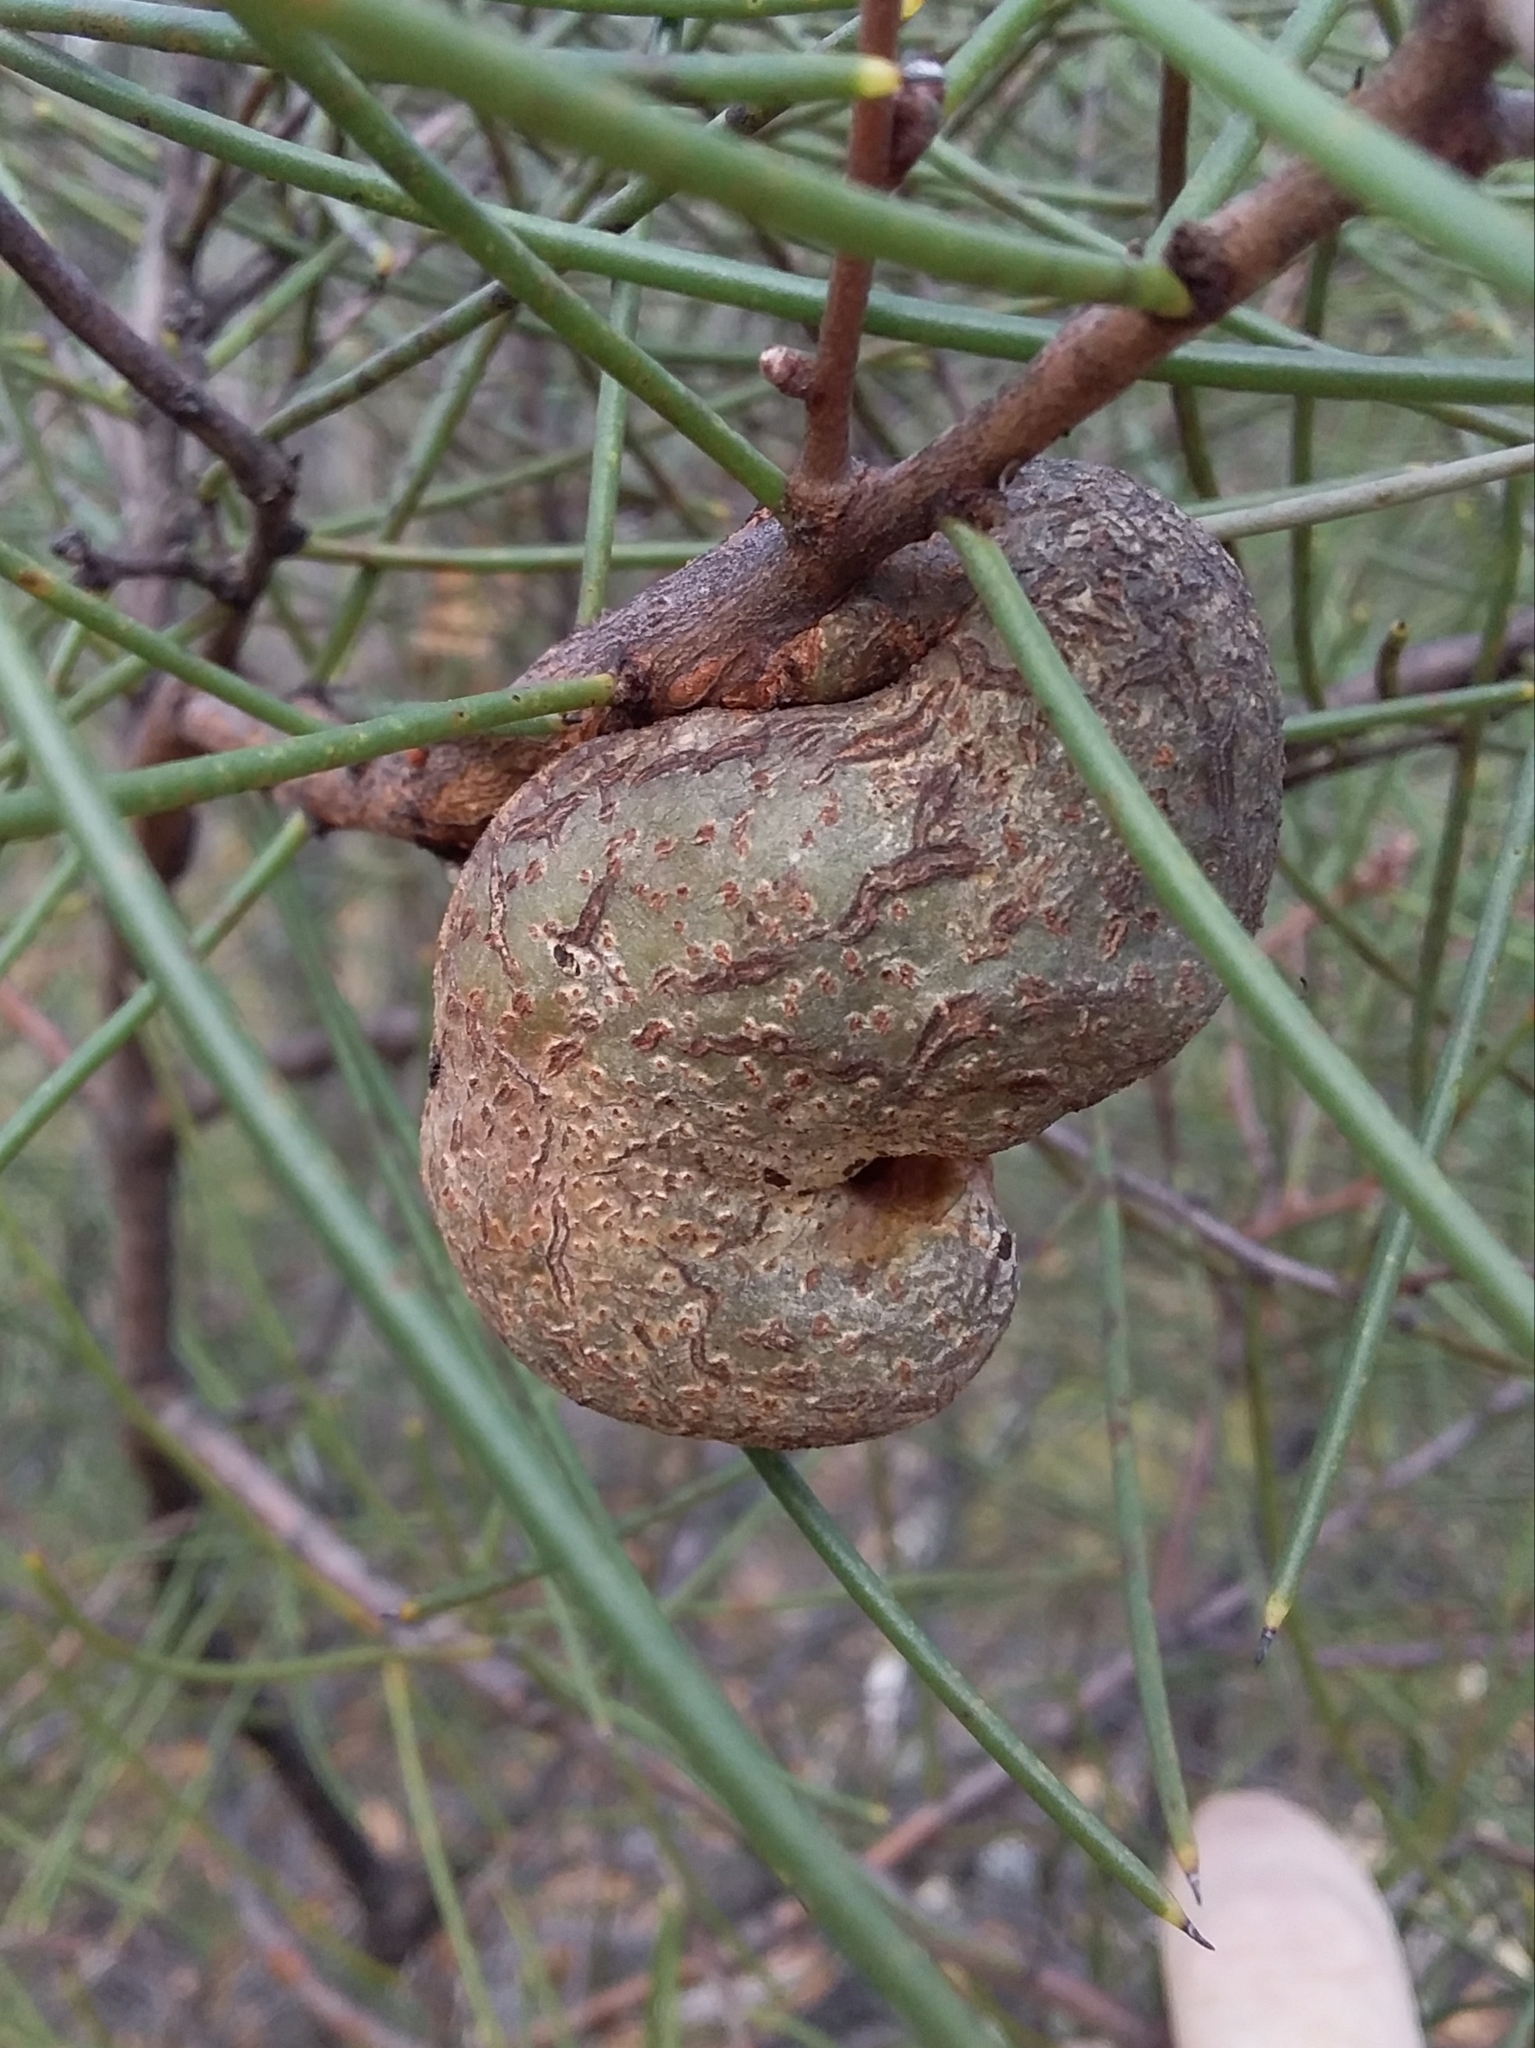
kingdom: Plantae
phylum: Tracheophyta
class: Magnoliopsida
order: Proteales
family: Proteaceae
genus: Hakea
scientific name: Hakea rostrata
